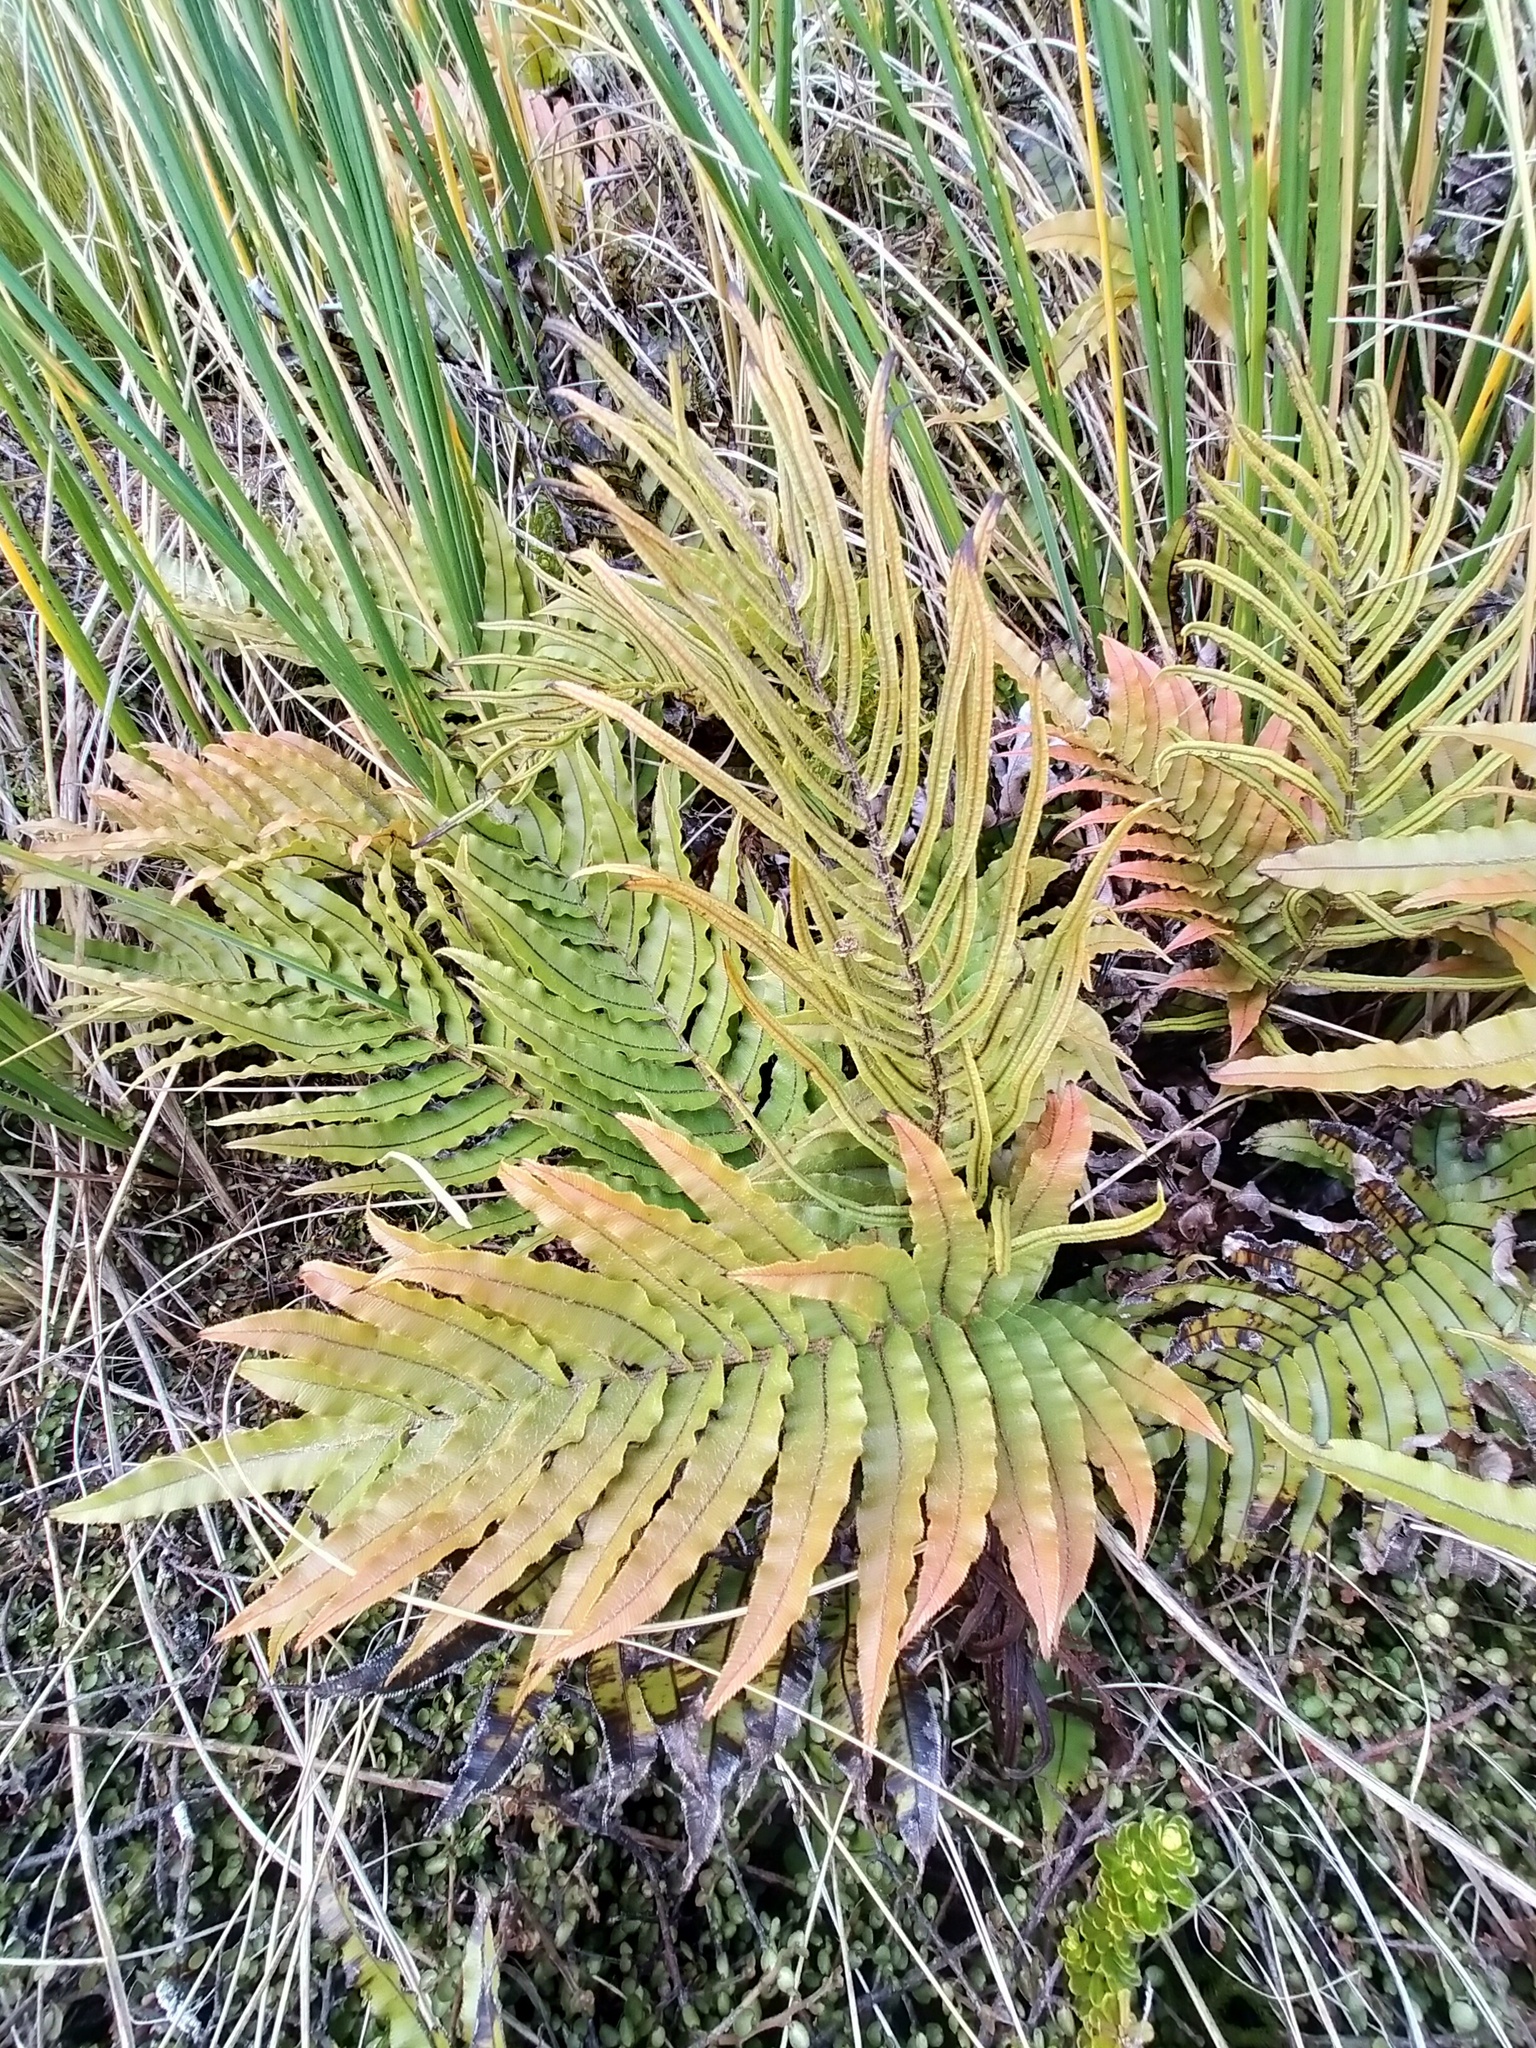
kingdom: Plantae
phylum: Tracheophyta
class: Polypodiopsida
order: Polypodiales
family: Blechnaceae
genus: Parablechnum
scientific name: Parablechnum novae-zelandiae
